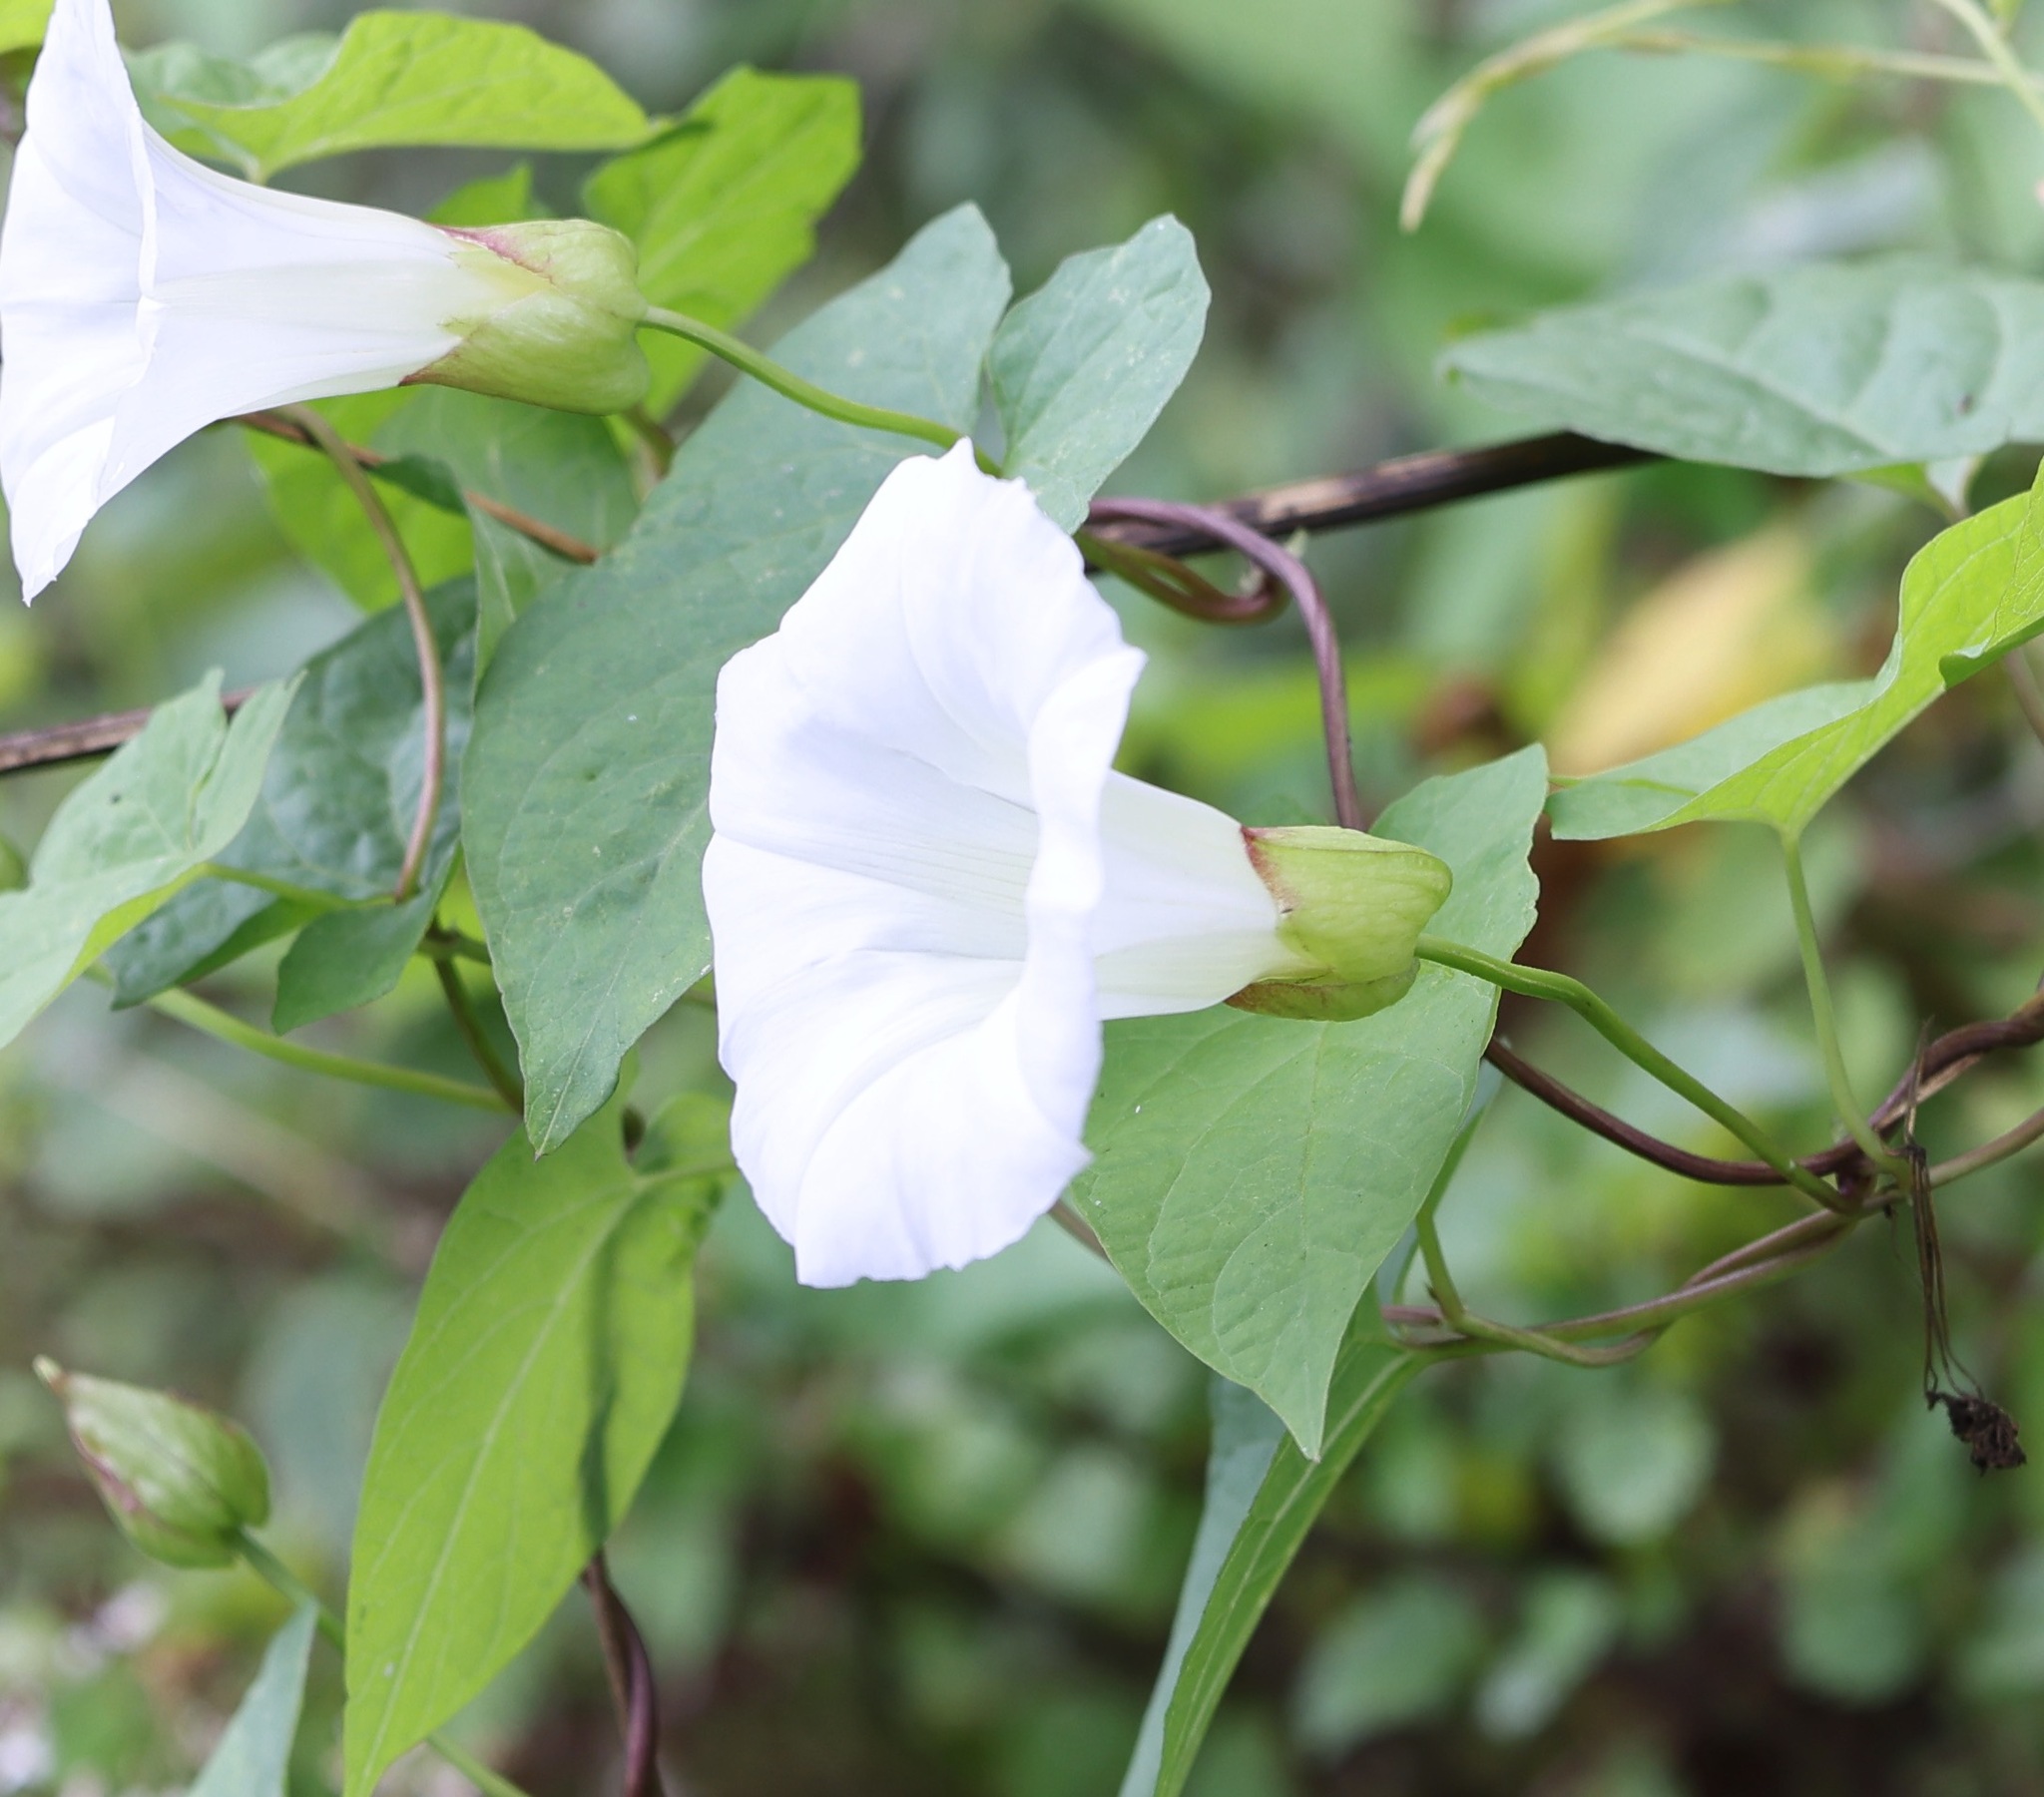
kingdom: Plantae
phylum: Tracheophyta
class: Magnoliopsida
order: Solanales
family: Convolvulaceae
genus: Calystegia
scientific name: Calystegia silvatica
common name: Large bindweed
